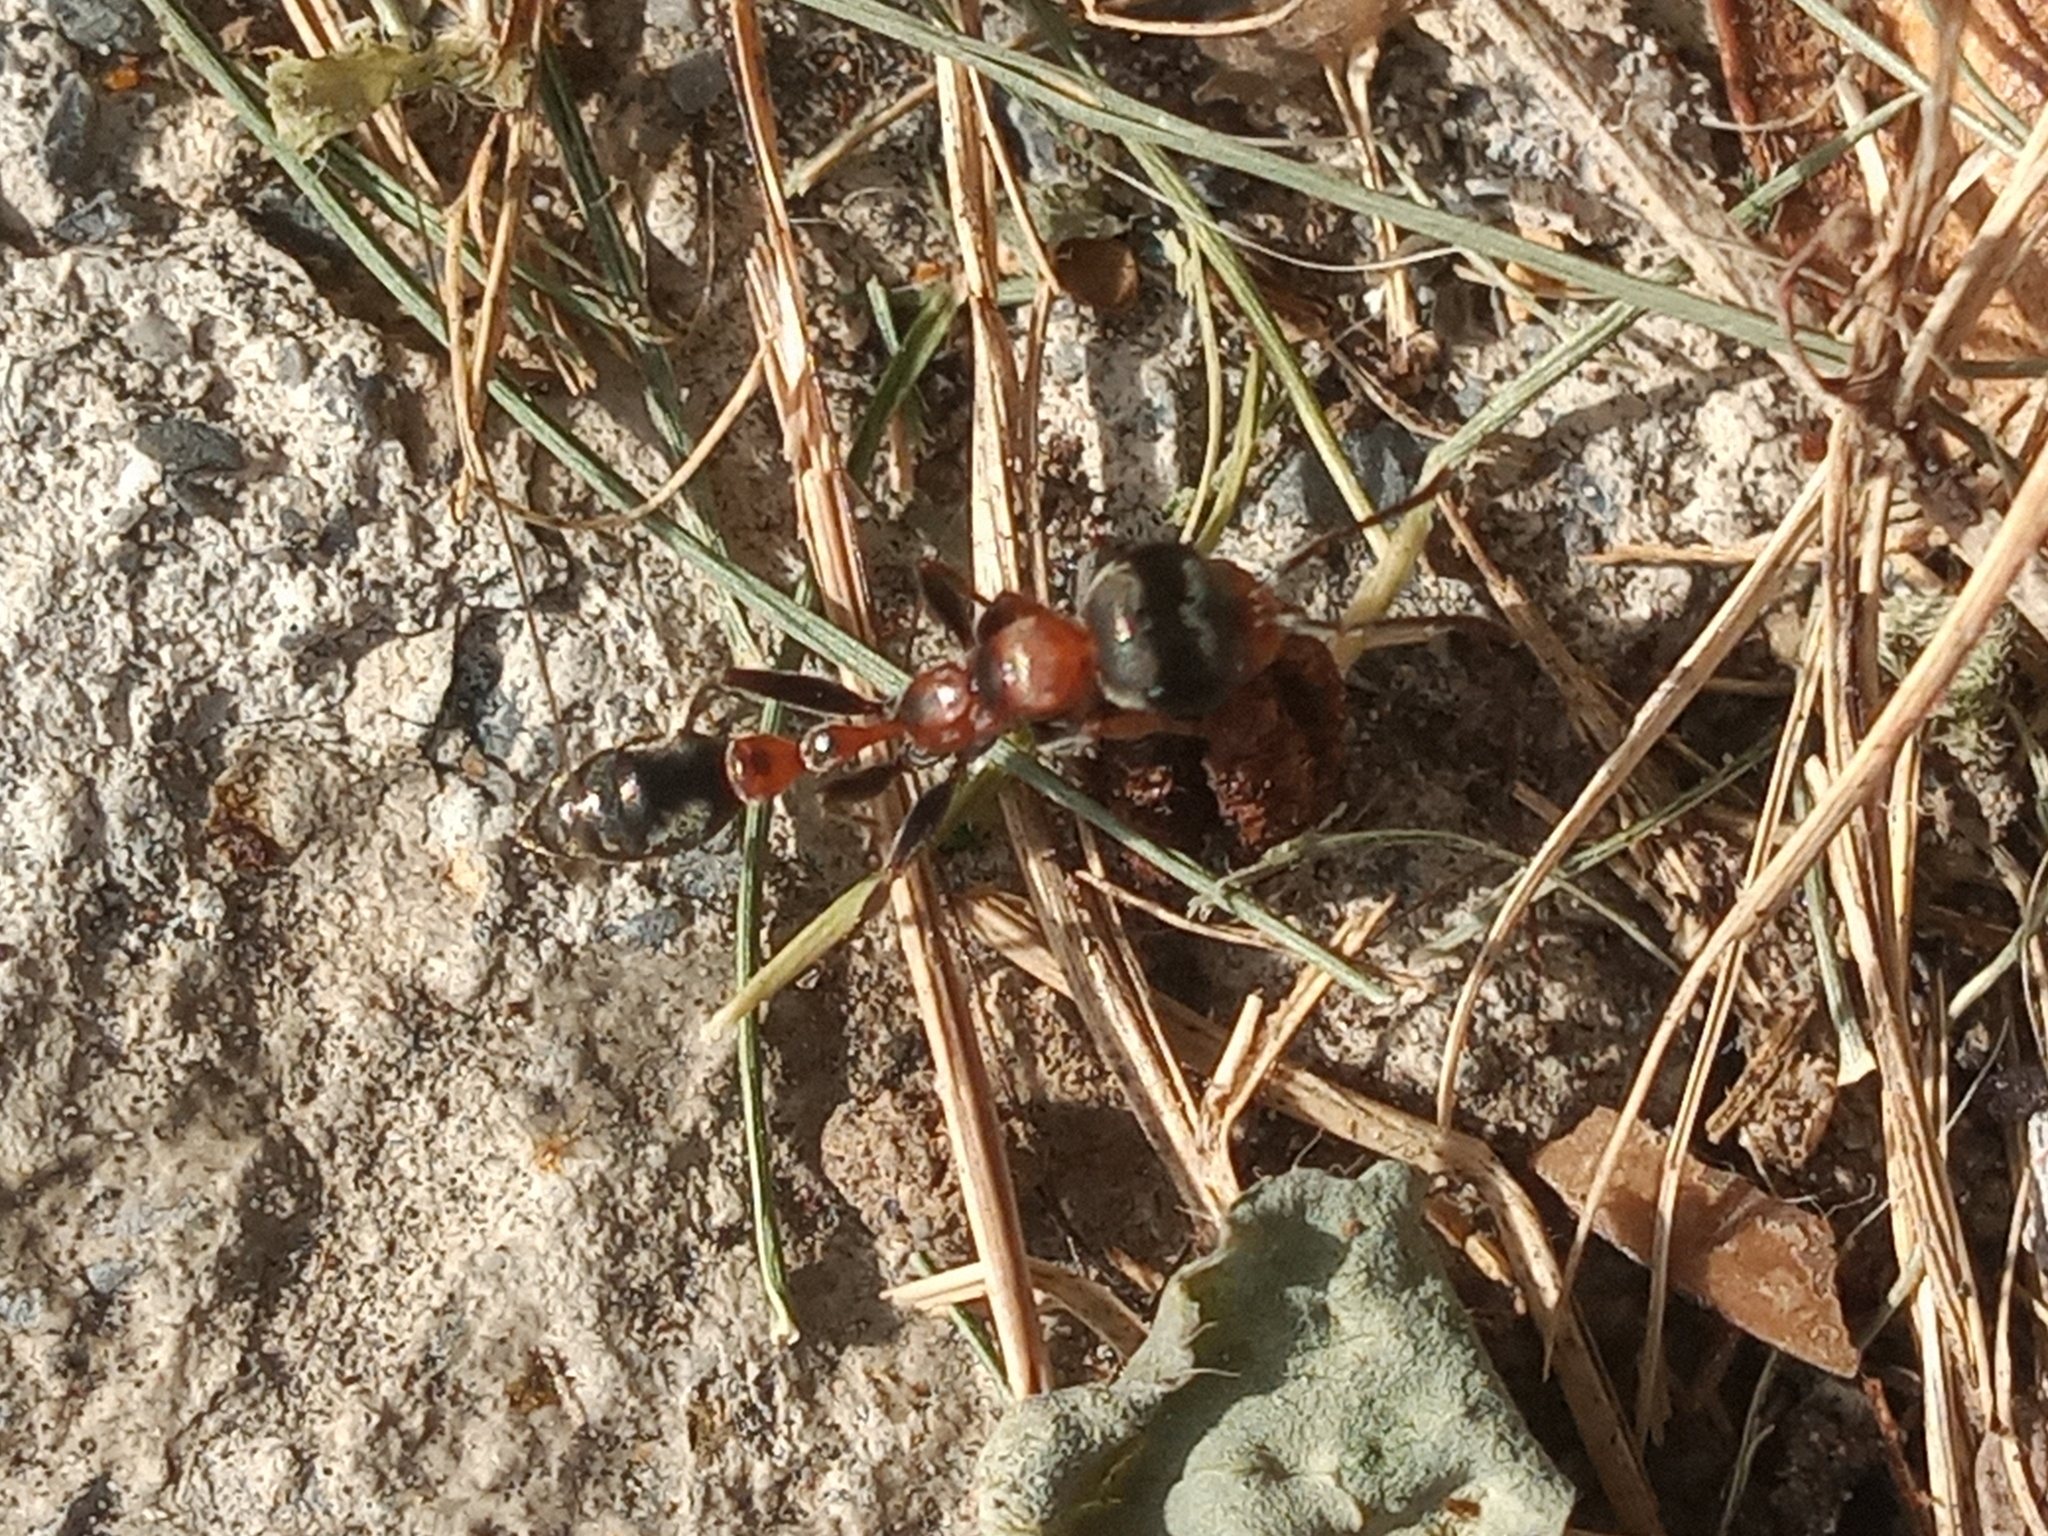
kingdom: Animalia
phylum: Arthropoda
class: Insecta
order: Hymenoptera
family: Formicidae
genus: Pseudomyrmex
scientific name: Pseudomyrmex gracilis
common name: Graceful twig ant
